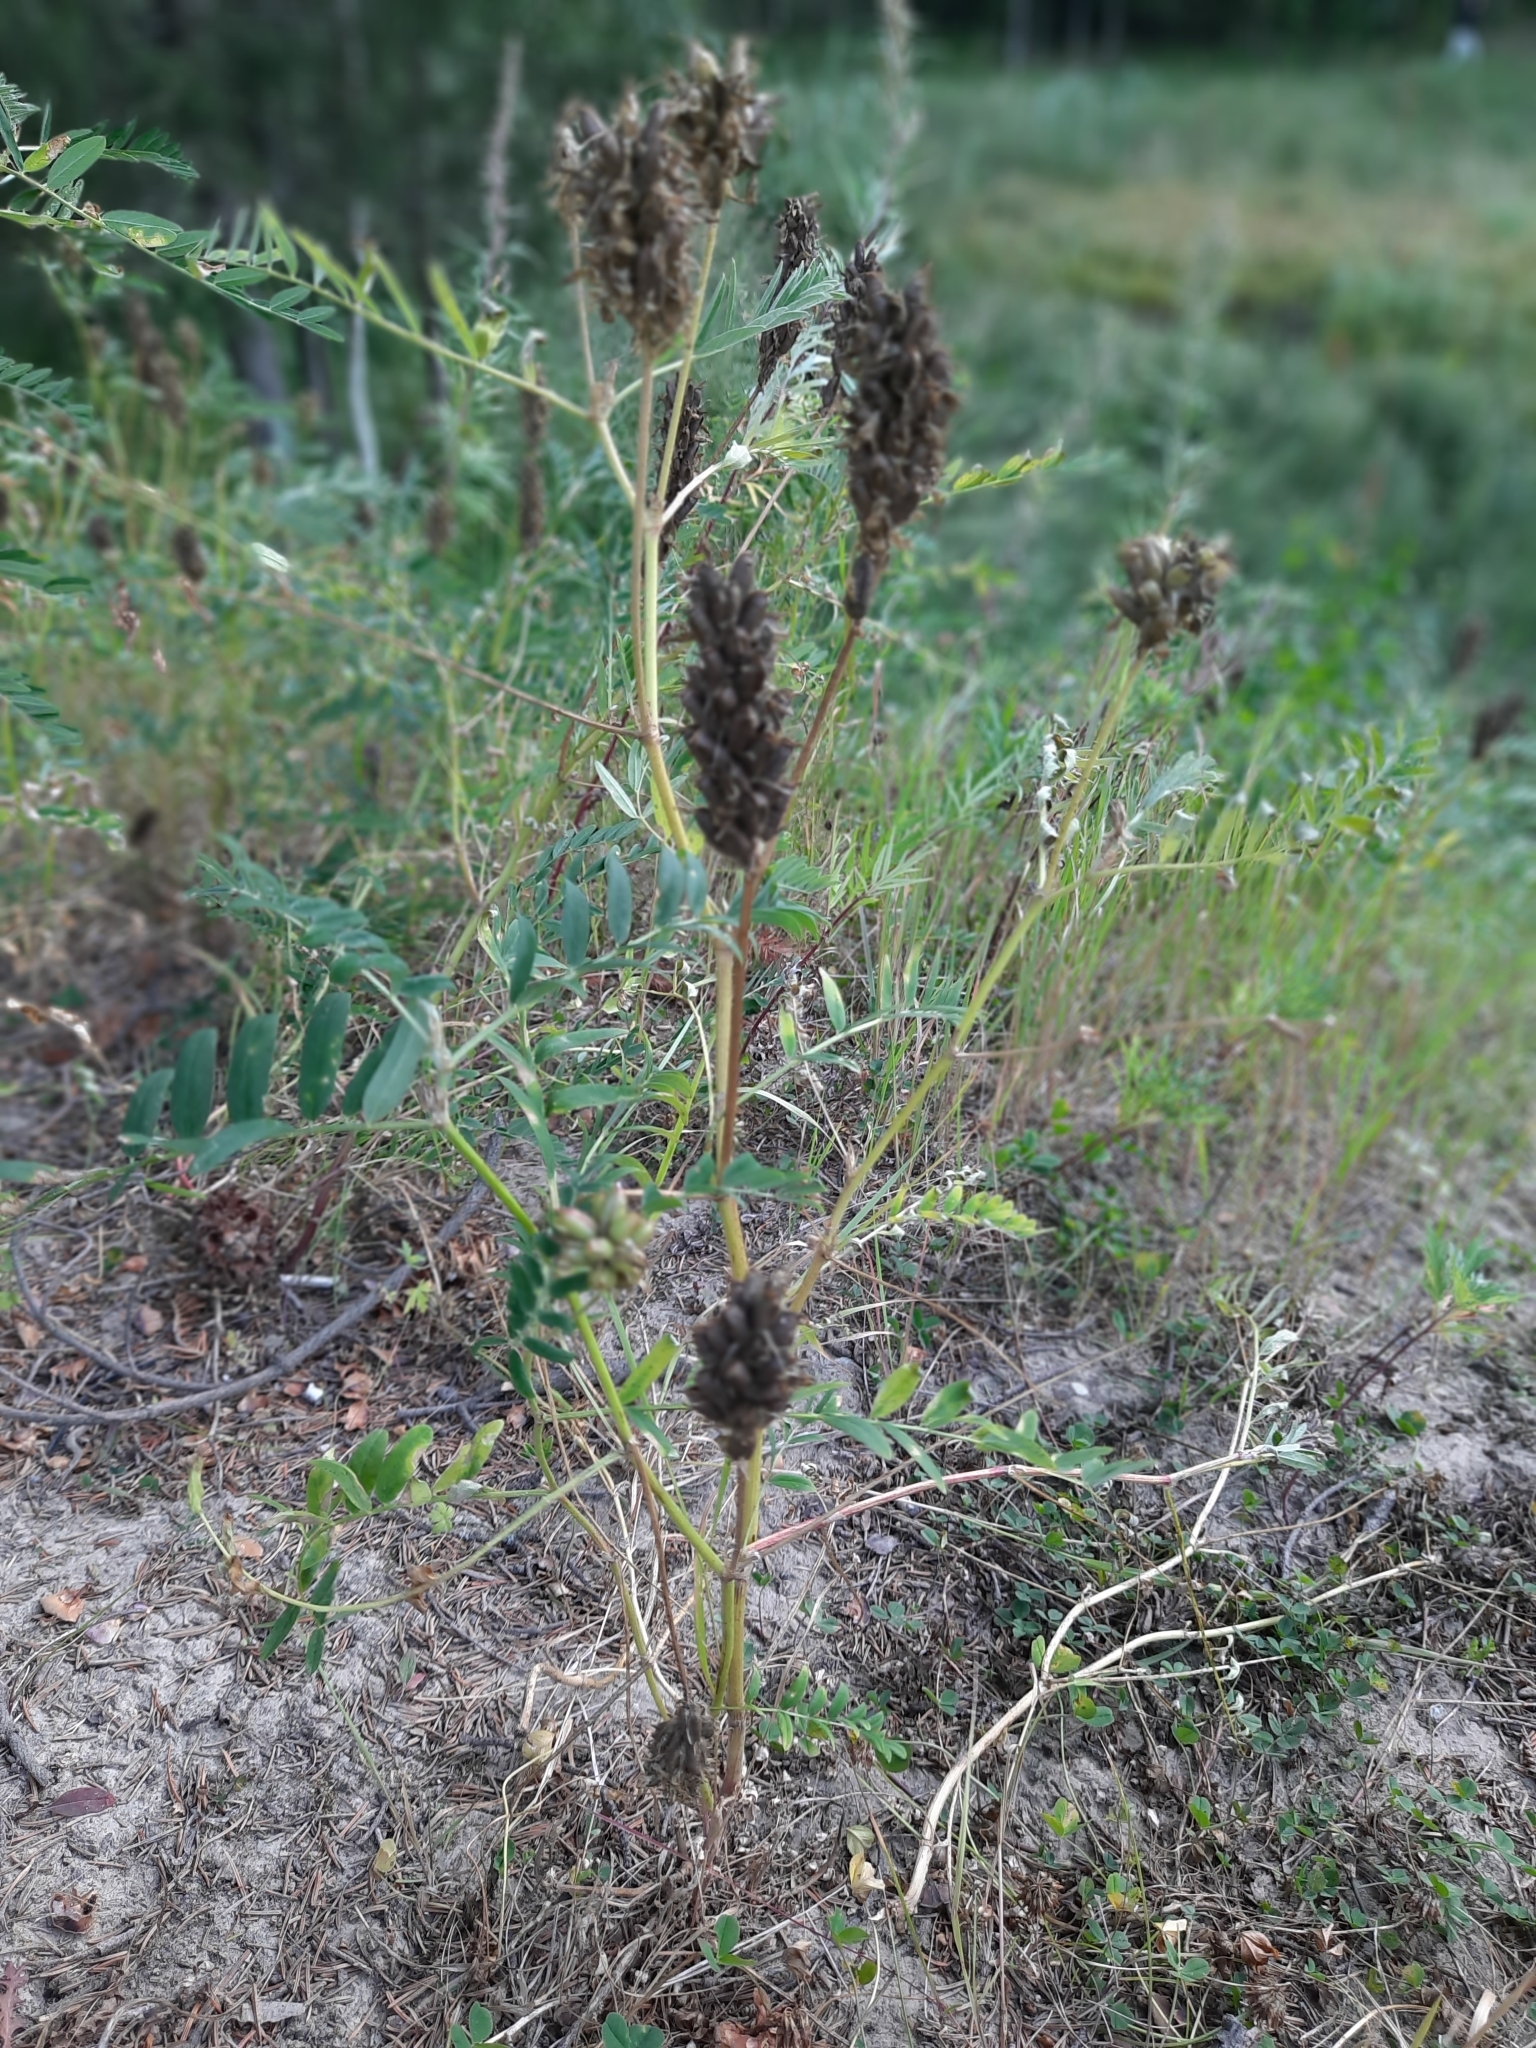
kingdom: Plantae
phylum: Tracheophyta
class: Magnoliopsida
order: Fabales
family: Fabaceae
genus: Astragalus
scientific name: Astragalus uliginosus
